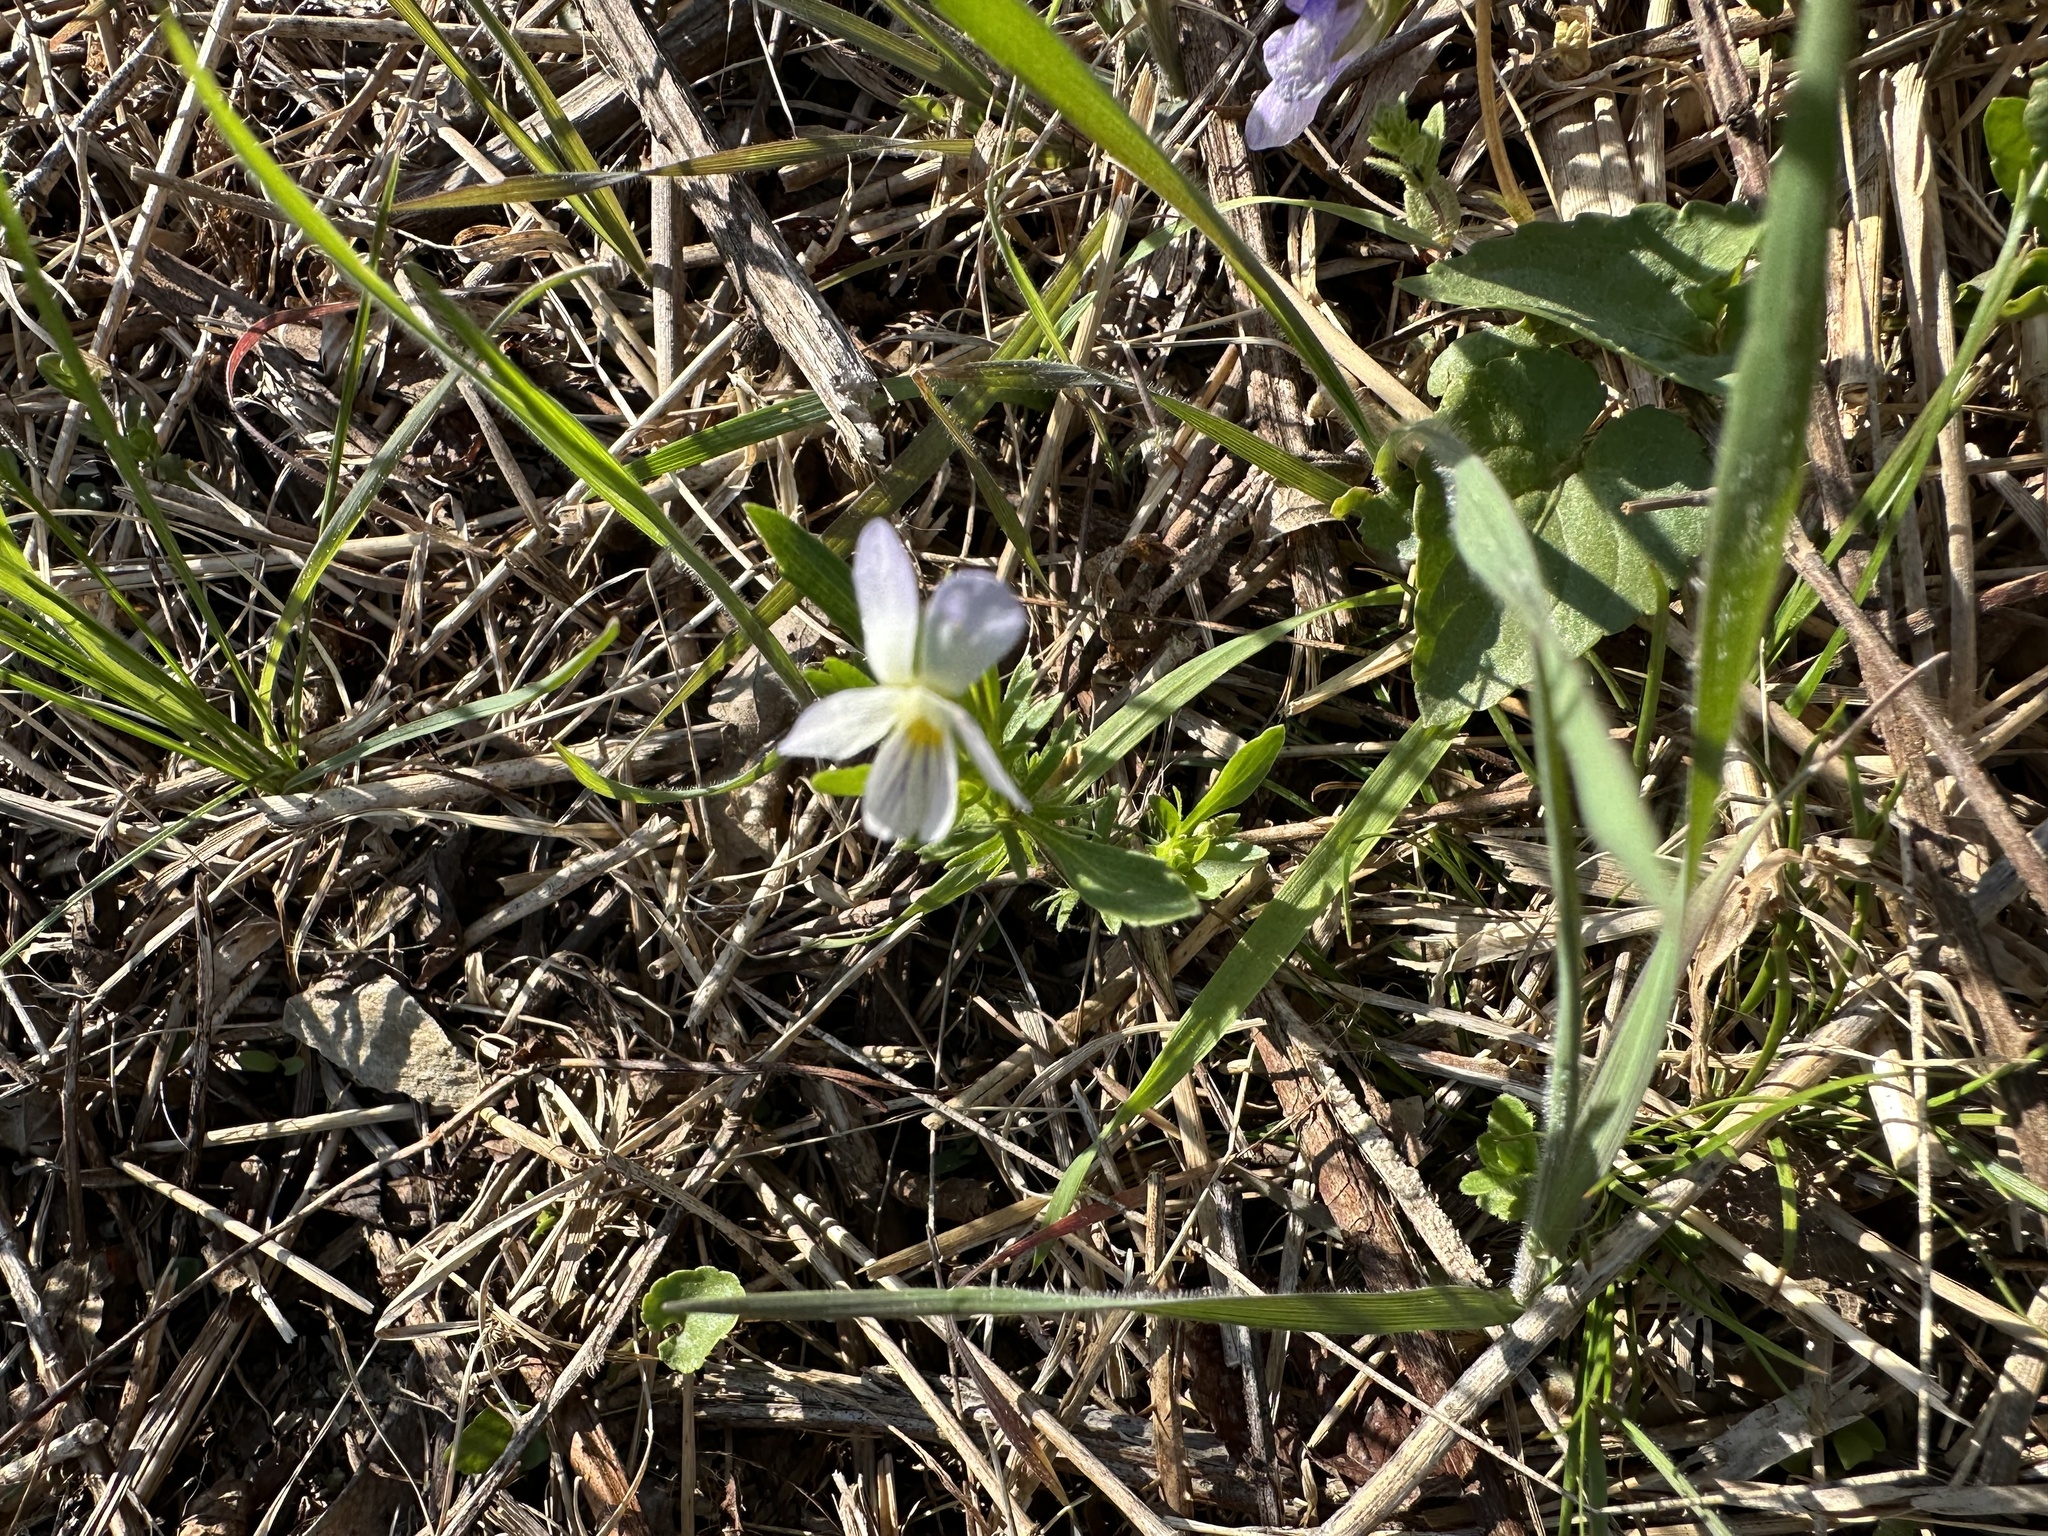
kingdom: Plantae
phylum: Tracheophyta
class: Magnoliopsida
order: Malpighiales
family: Violaceae
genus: Viola
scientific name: Viola rafinesquei
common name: American field pansy
